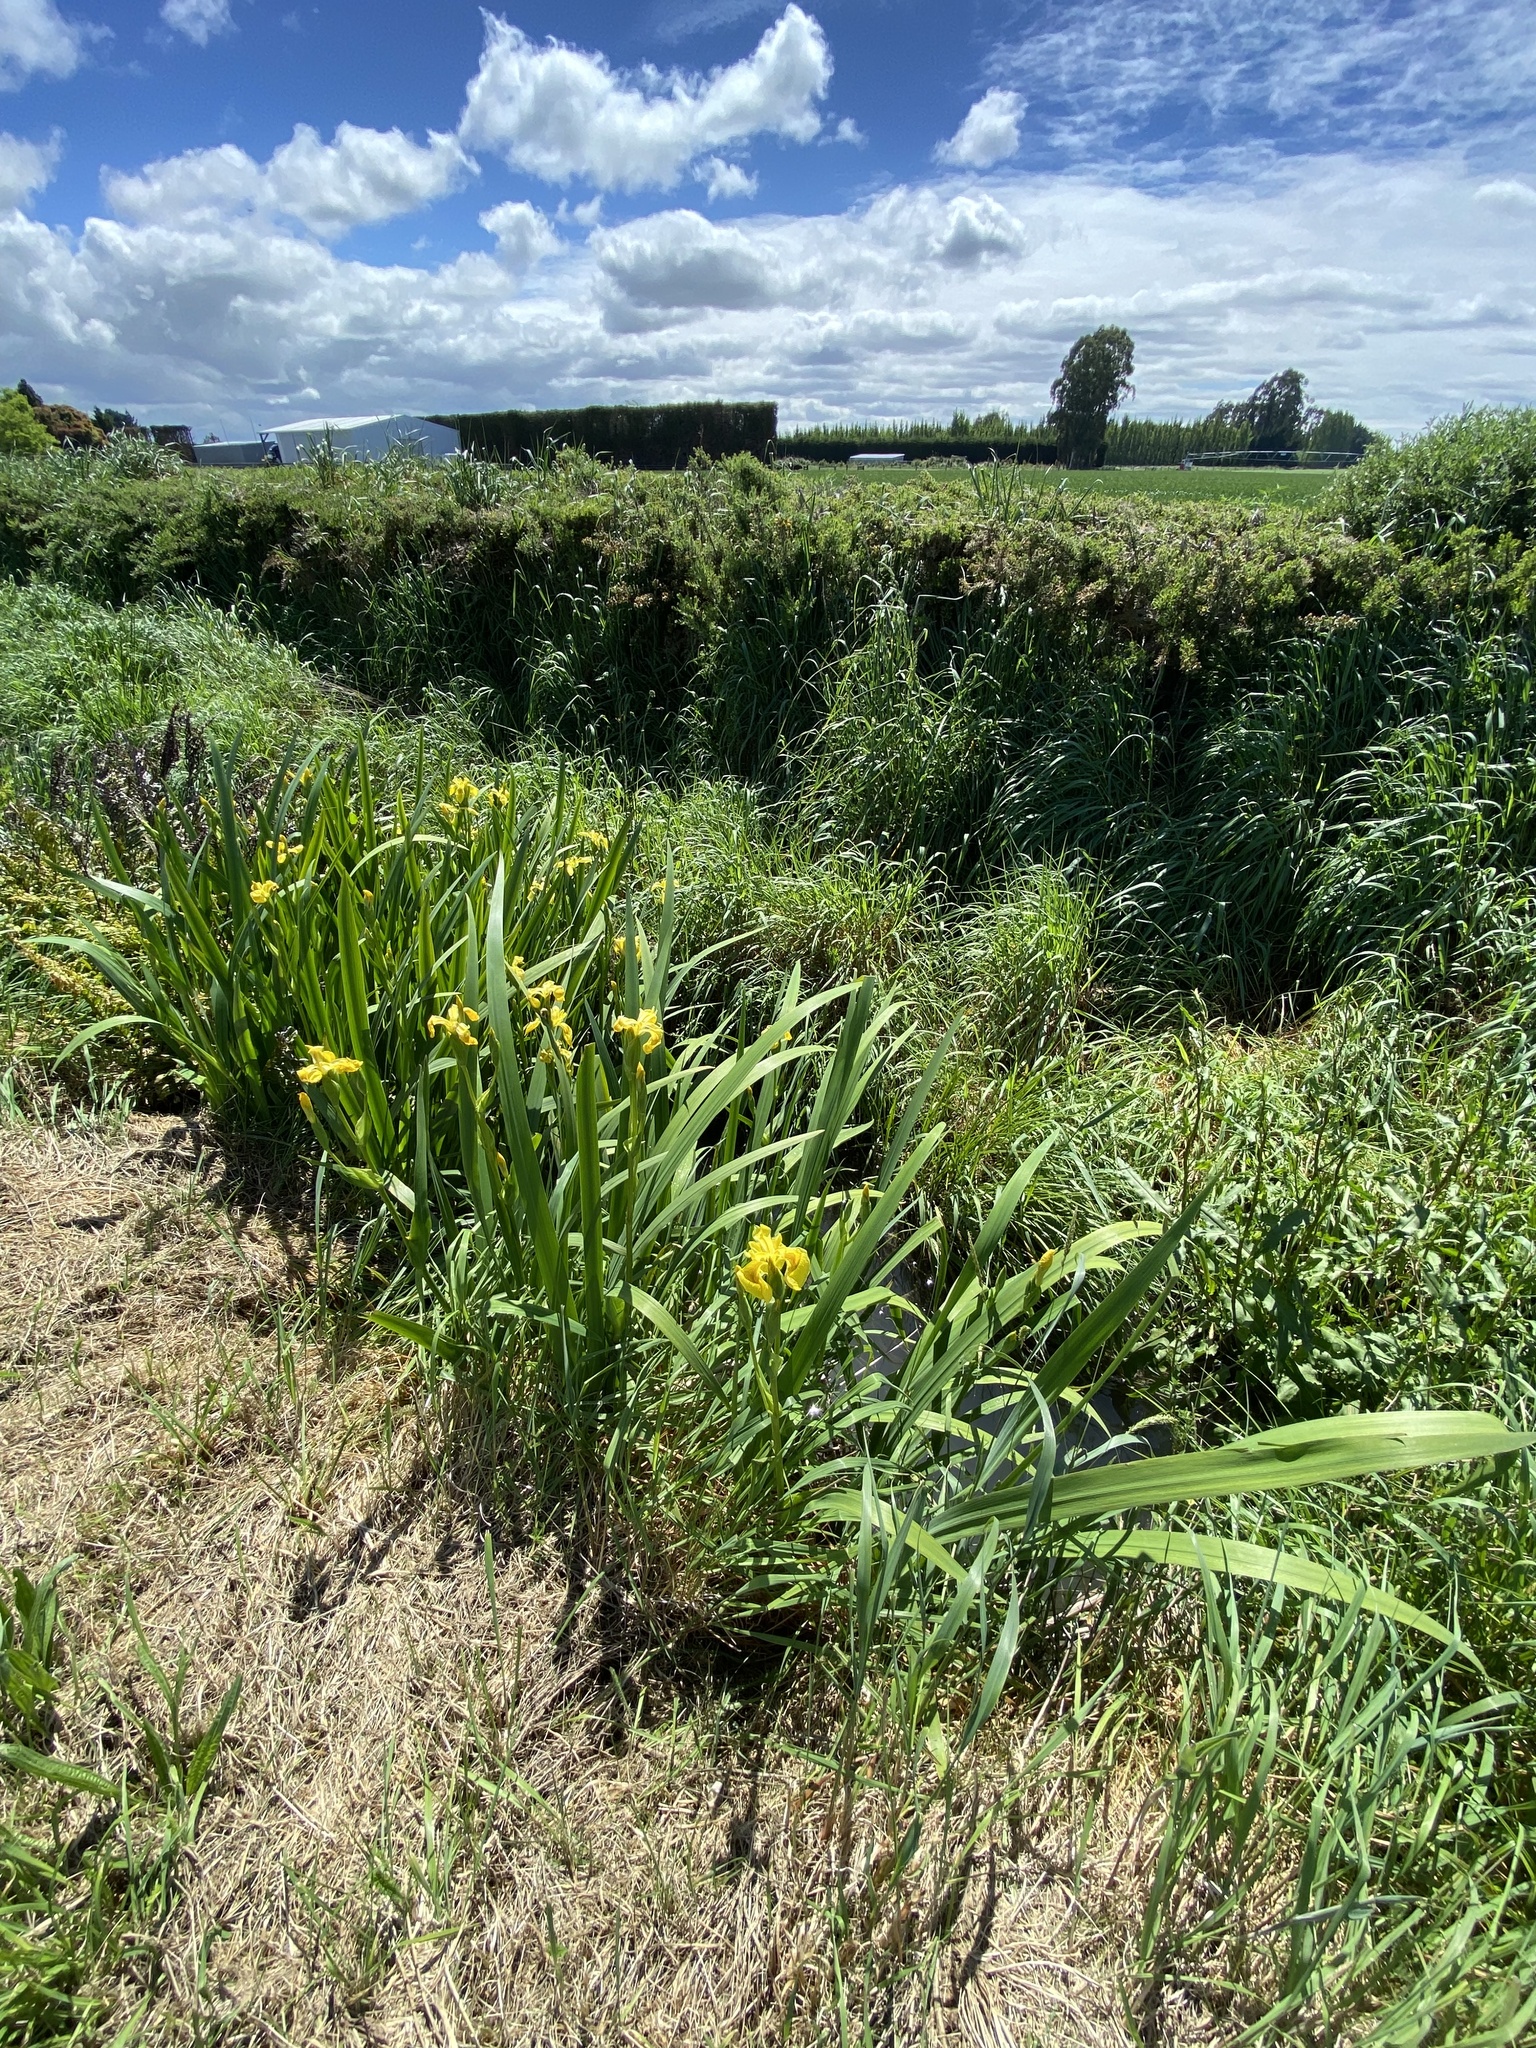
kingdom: Plantae
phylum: Tracheophyta
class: Liliopsida
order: Asparagales
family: Iridaceae
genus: Iris
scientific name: Iris pseudacorus
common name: Yellow flag
